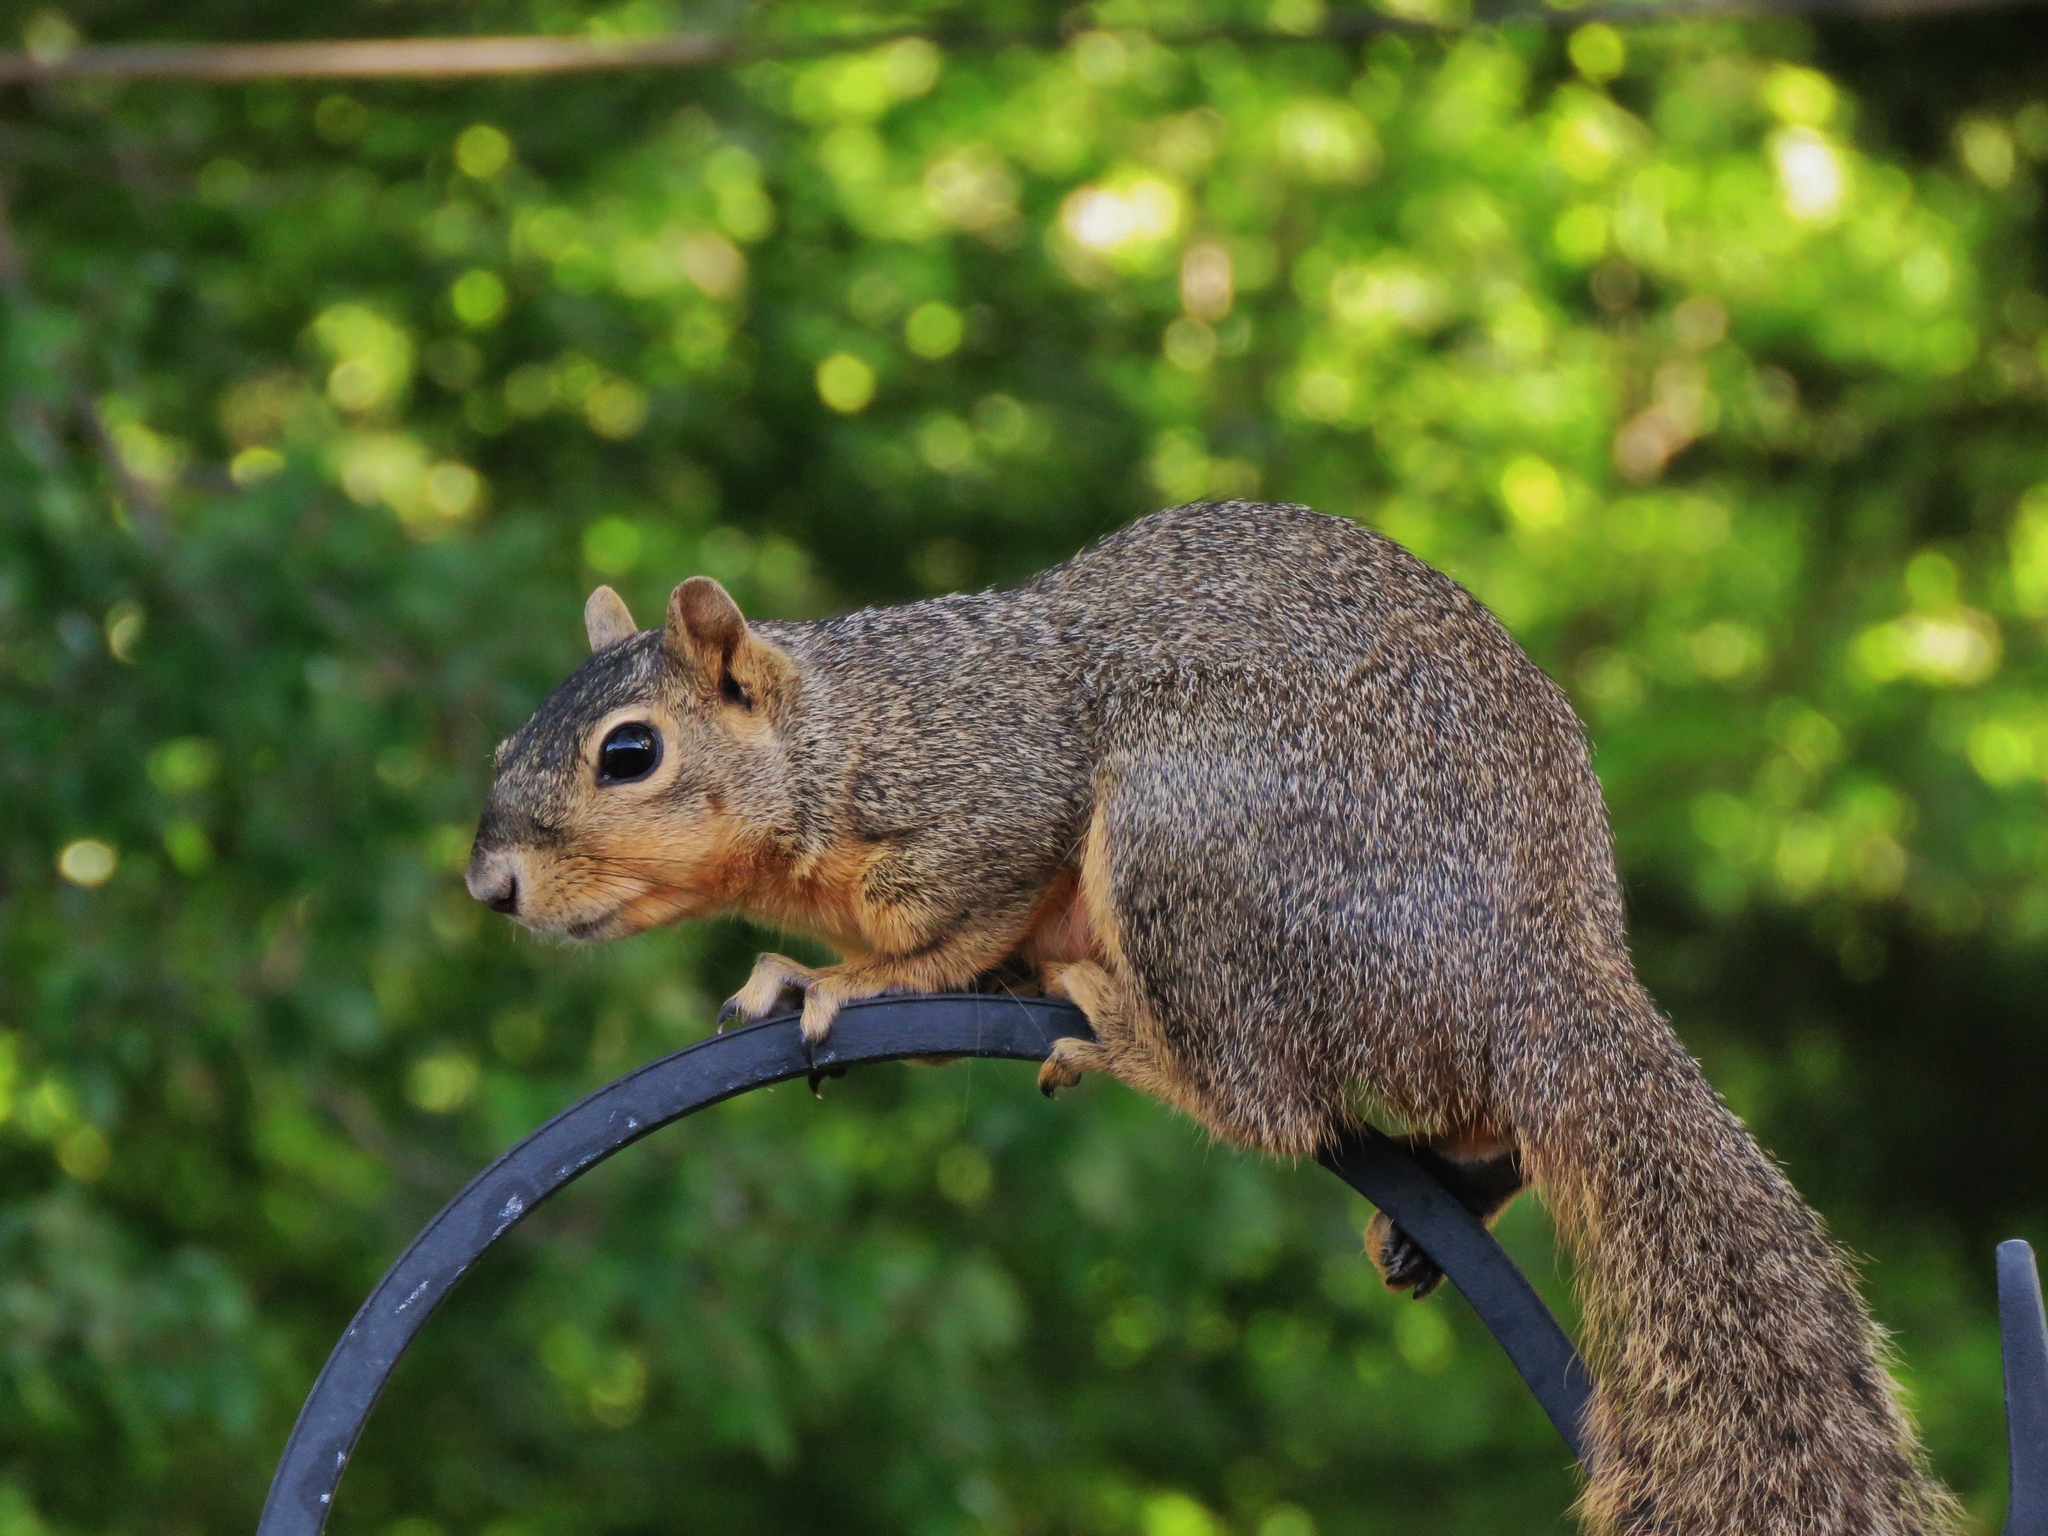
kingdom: Animalia
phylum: Chordata
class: Mammalia
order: Rodentia
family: Sciuridae
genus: Sciurus
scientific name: Sciurus niger
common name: Fox squirrel
